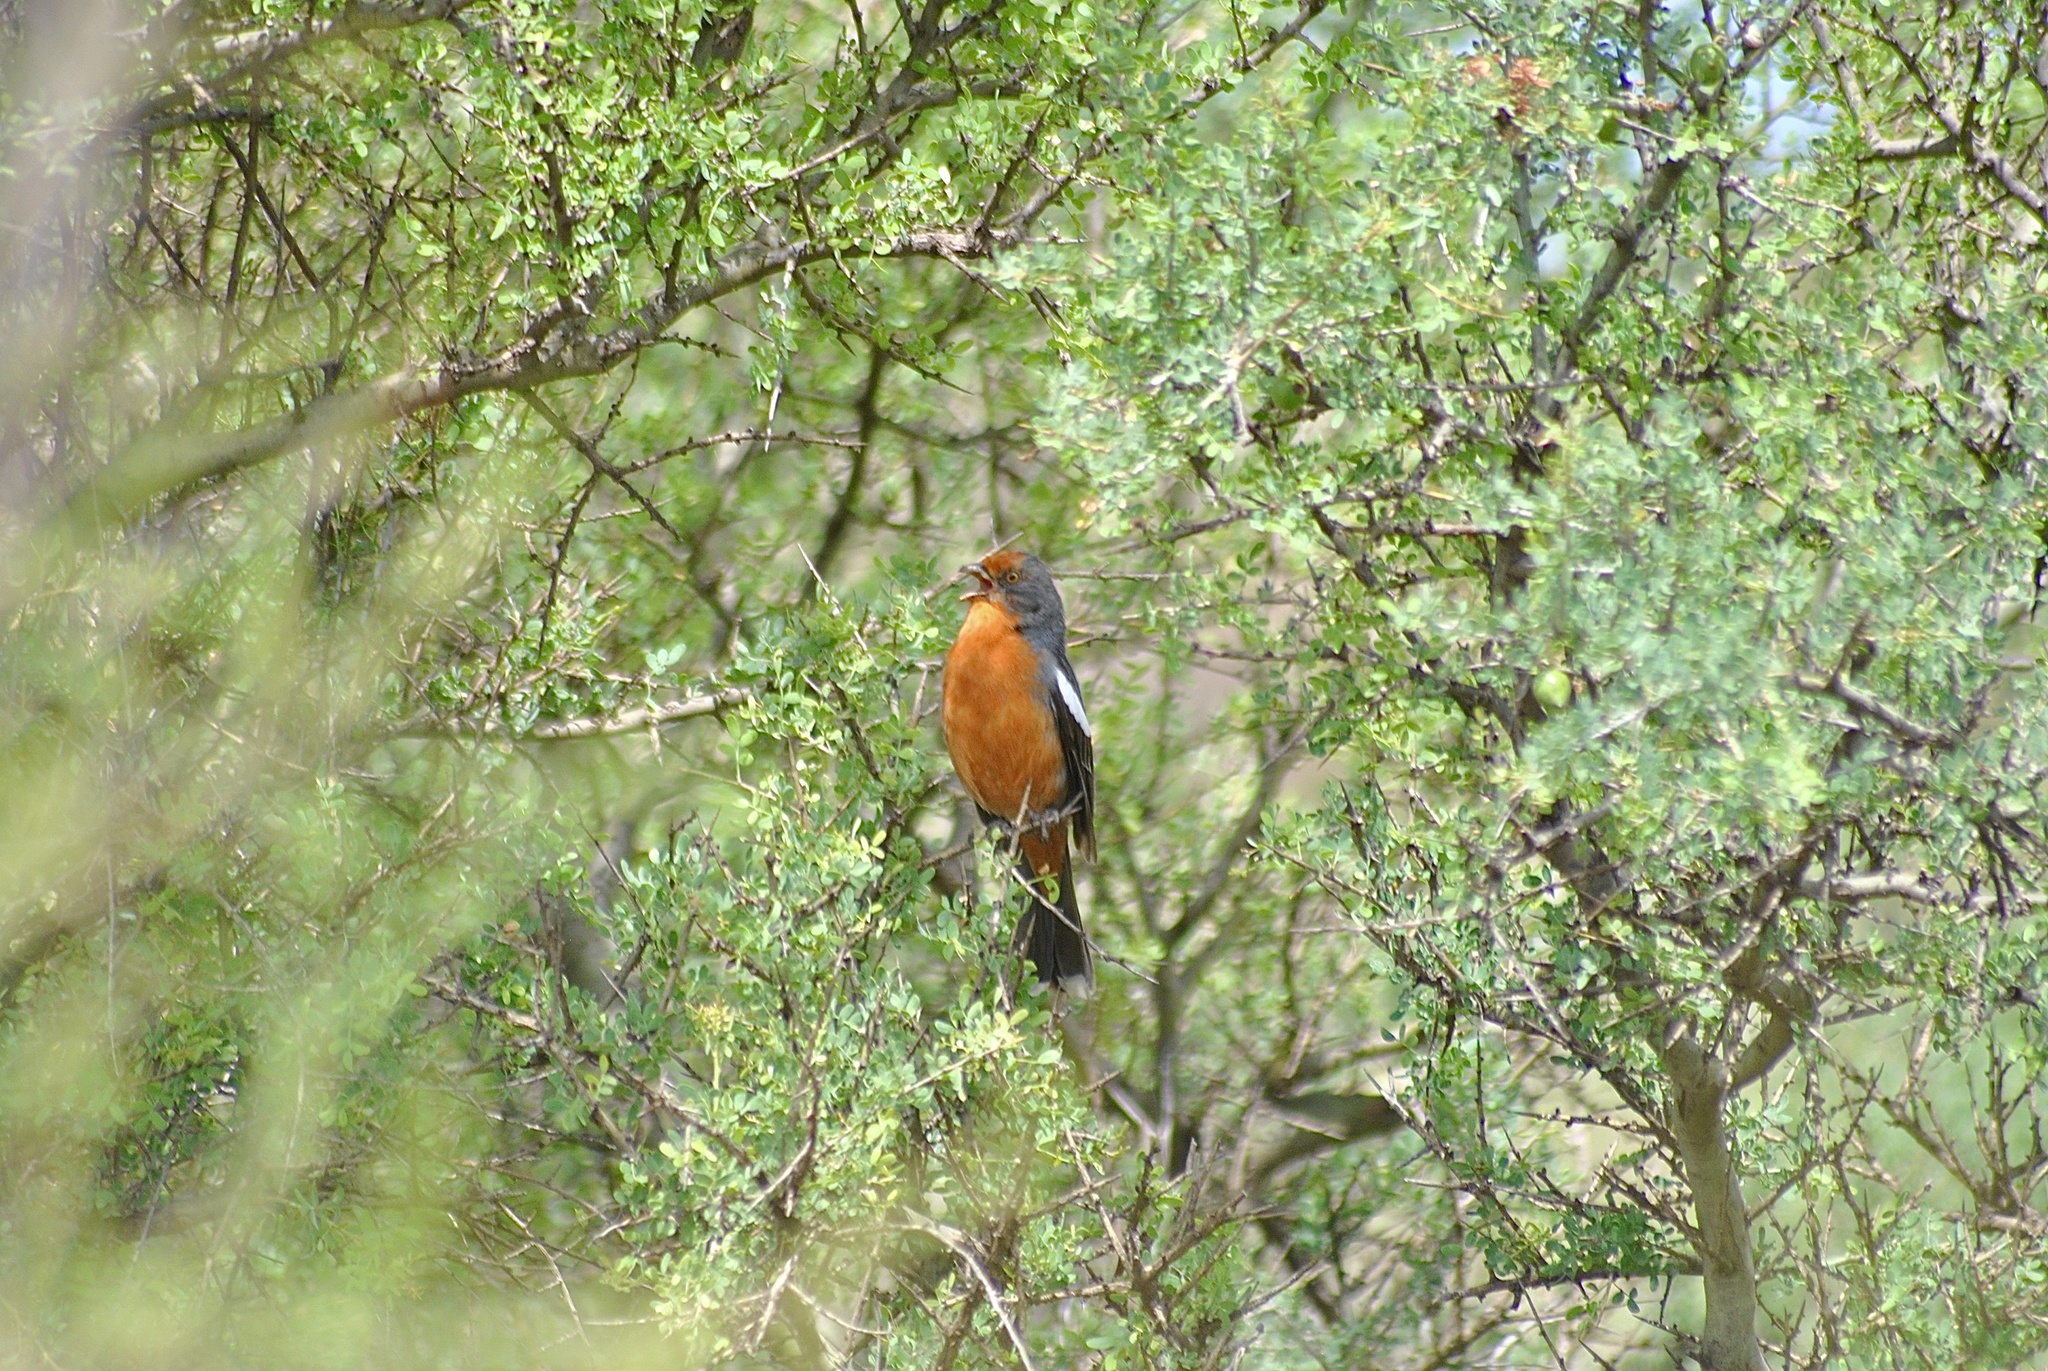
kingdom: Animalia
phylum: Chordata
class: Aves
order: Passeriformes
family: Cotingidae
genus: Phytotoma
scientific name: Phytotoma rutila
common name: White-tipped plantcutter
